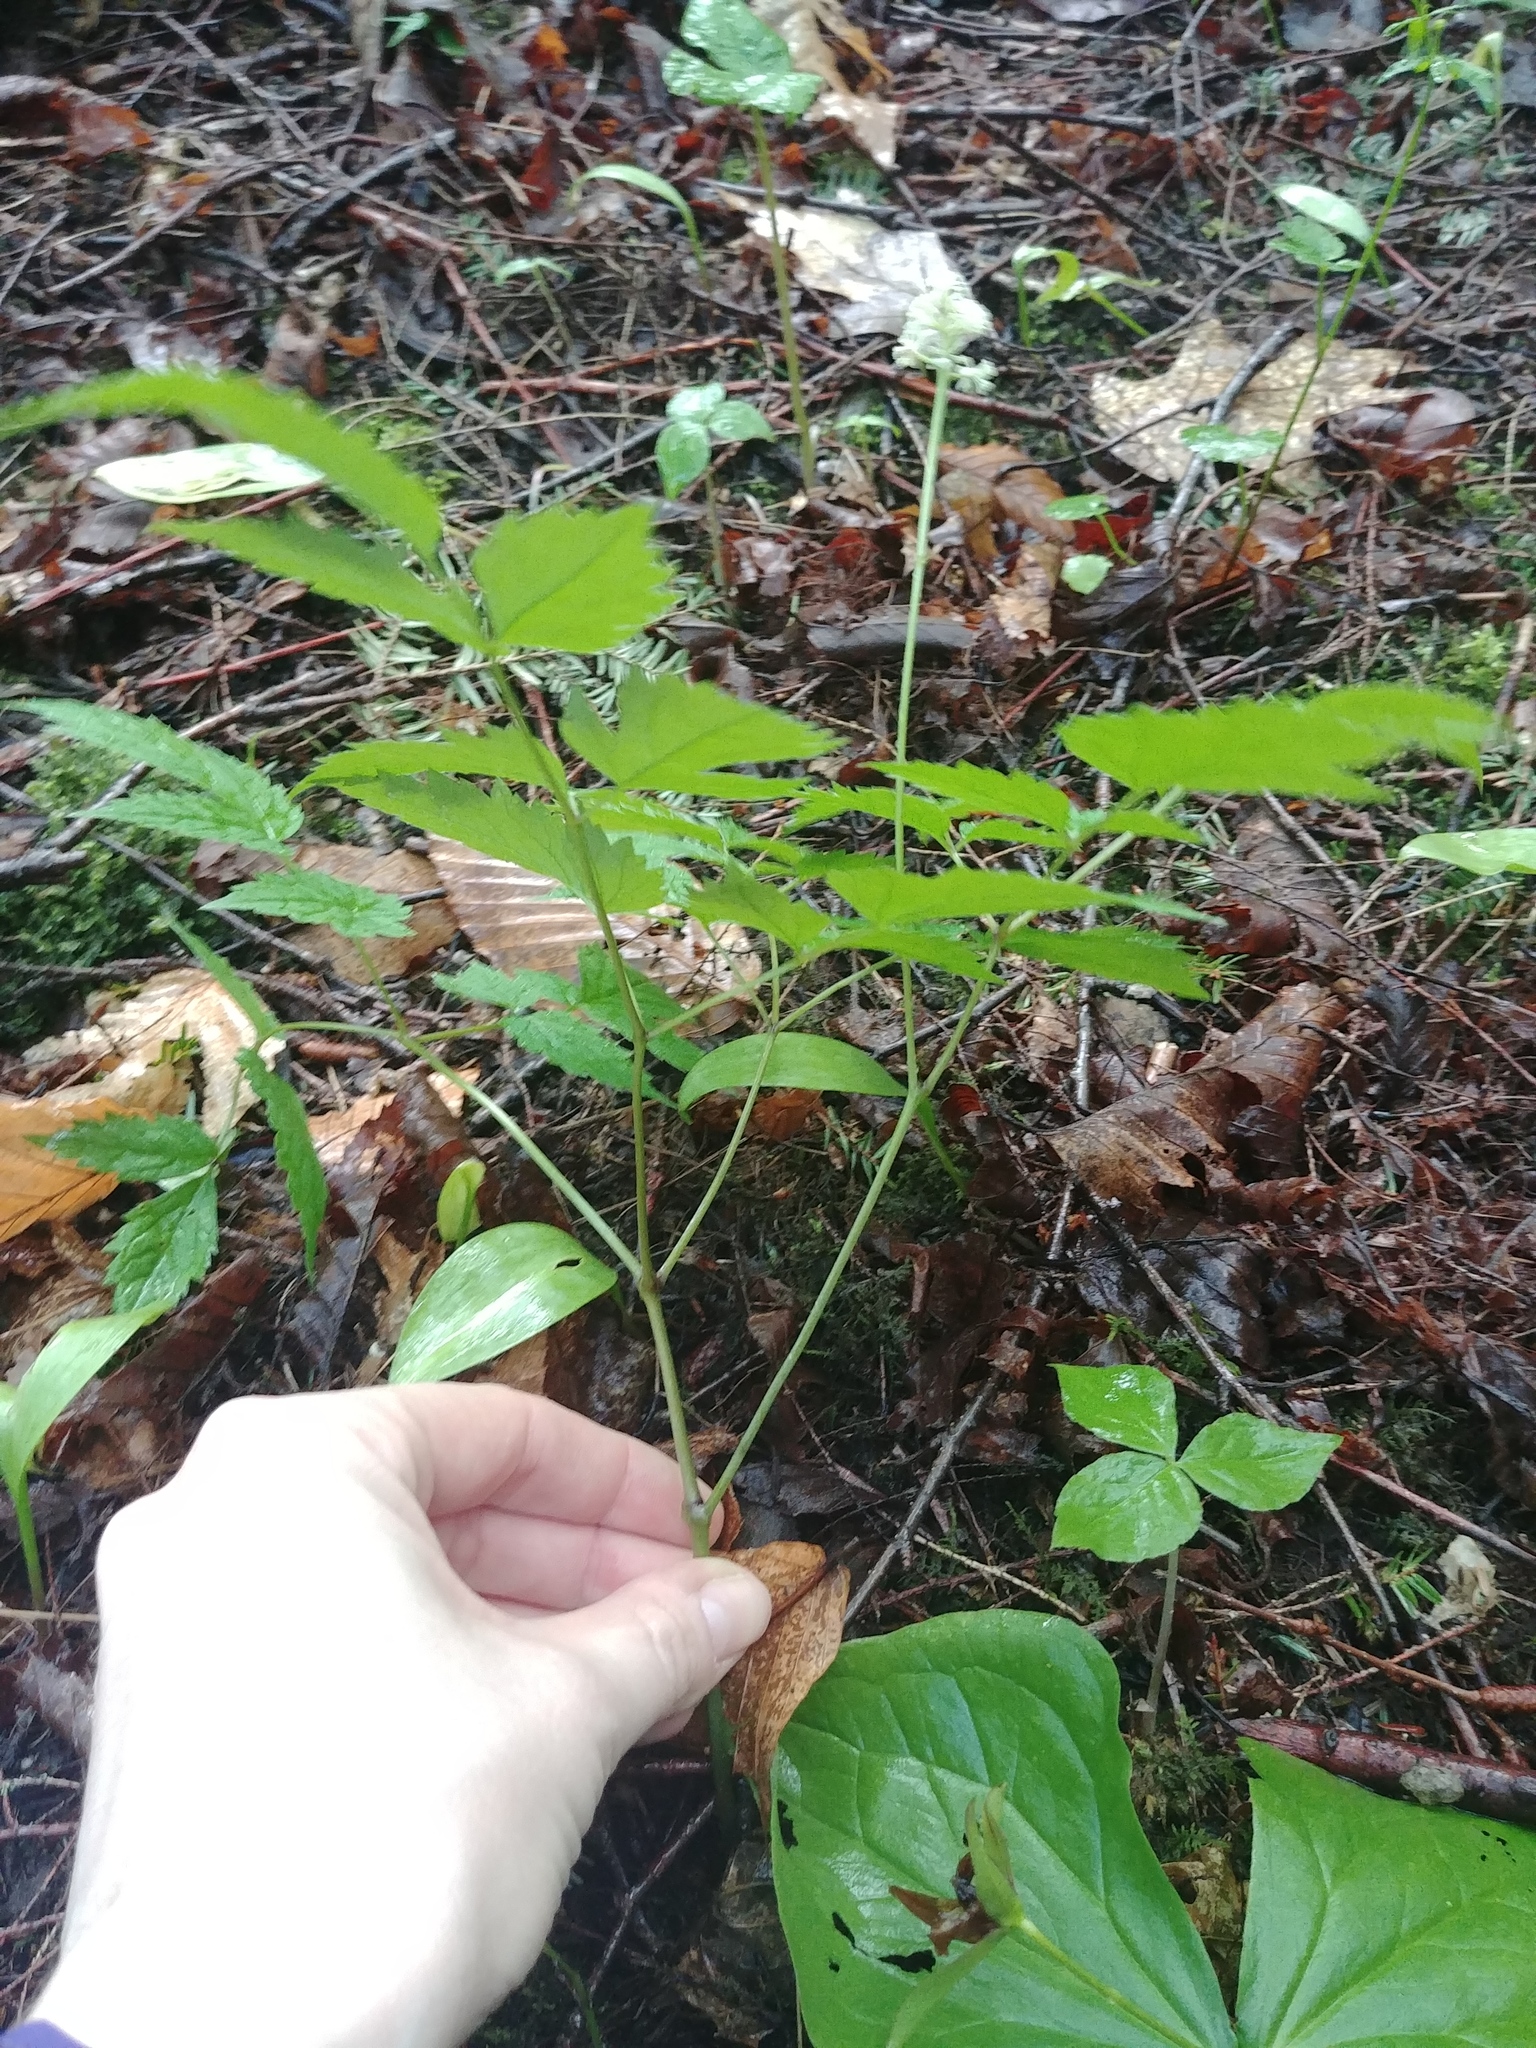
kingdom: Plantae
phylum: Tracheophyta
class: Magnoliopsida
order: Ranunculales
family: Ranunculaceae
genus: Actaea
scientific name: Actaea pachypoda
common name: Doll's-eyes
